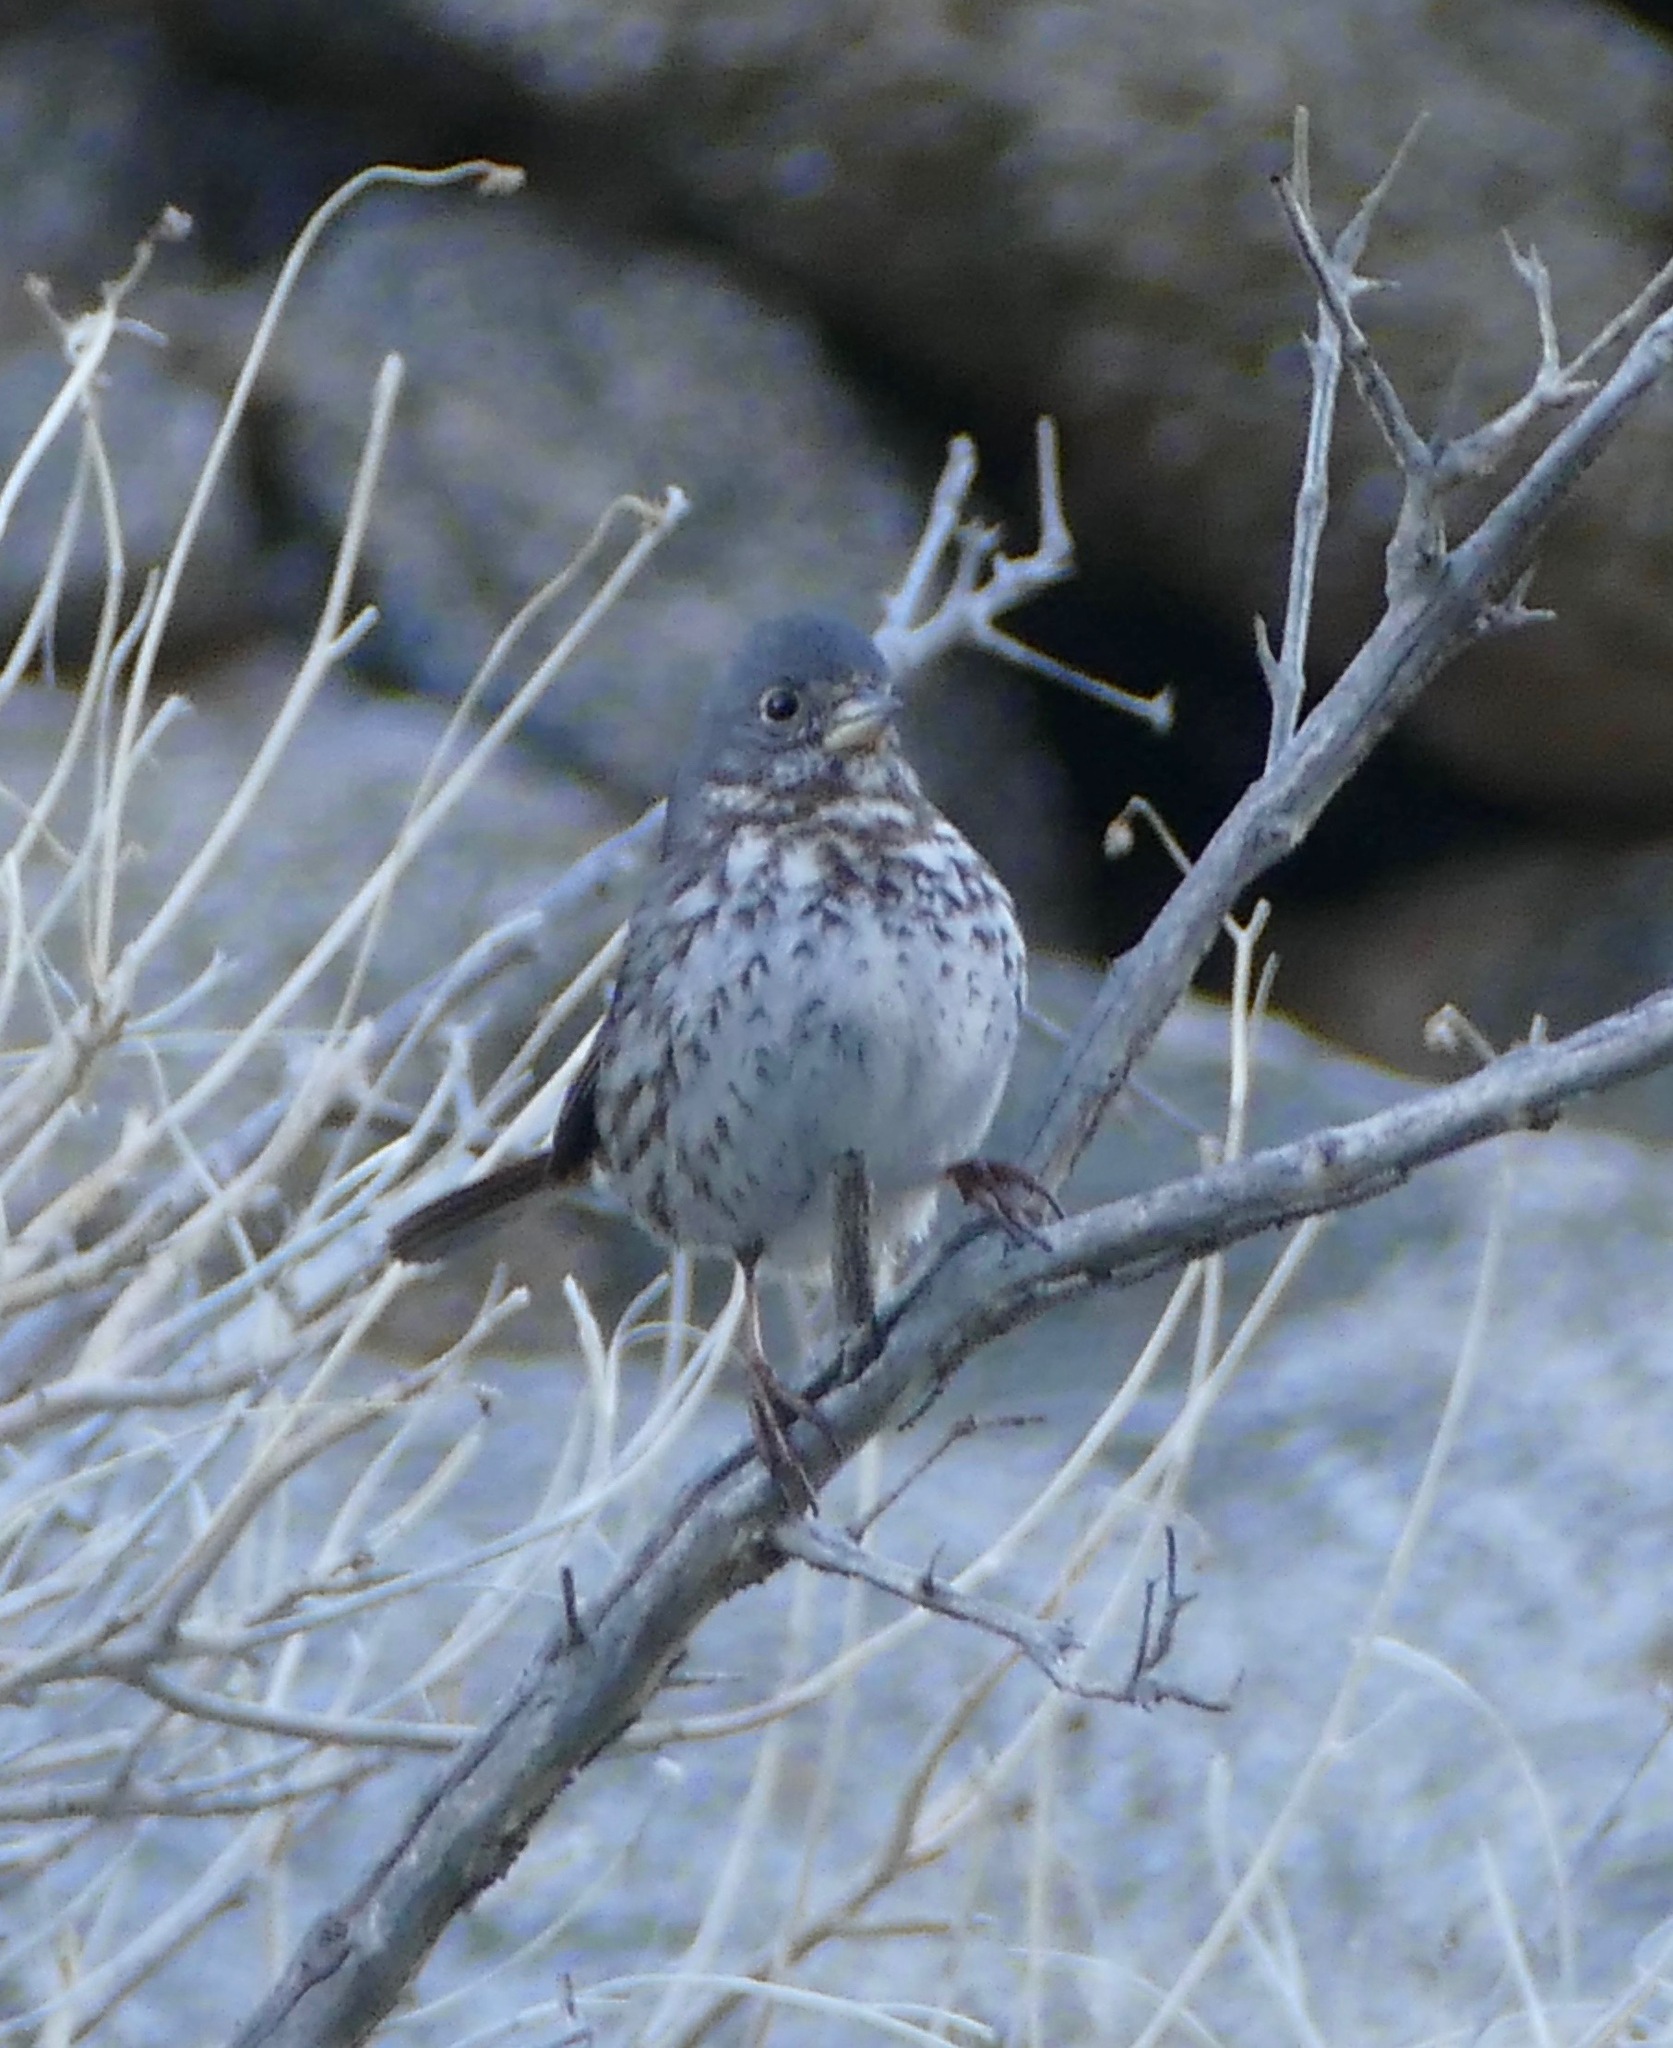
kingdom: Animalia
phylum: Chordata
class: Aves
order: Passeriformes
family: Passerellidae
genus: Passerella
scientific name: Passerella iliaca
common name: Fox sparrow
